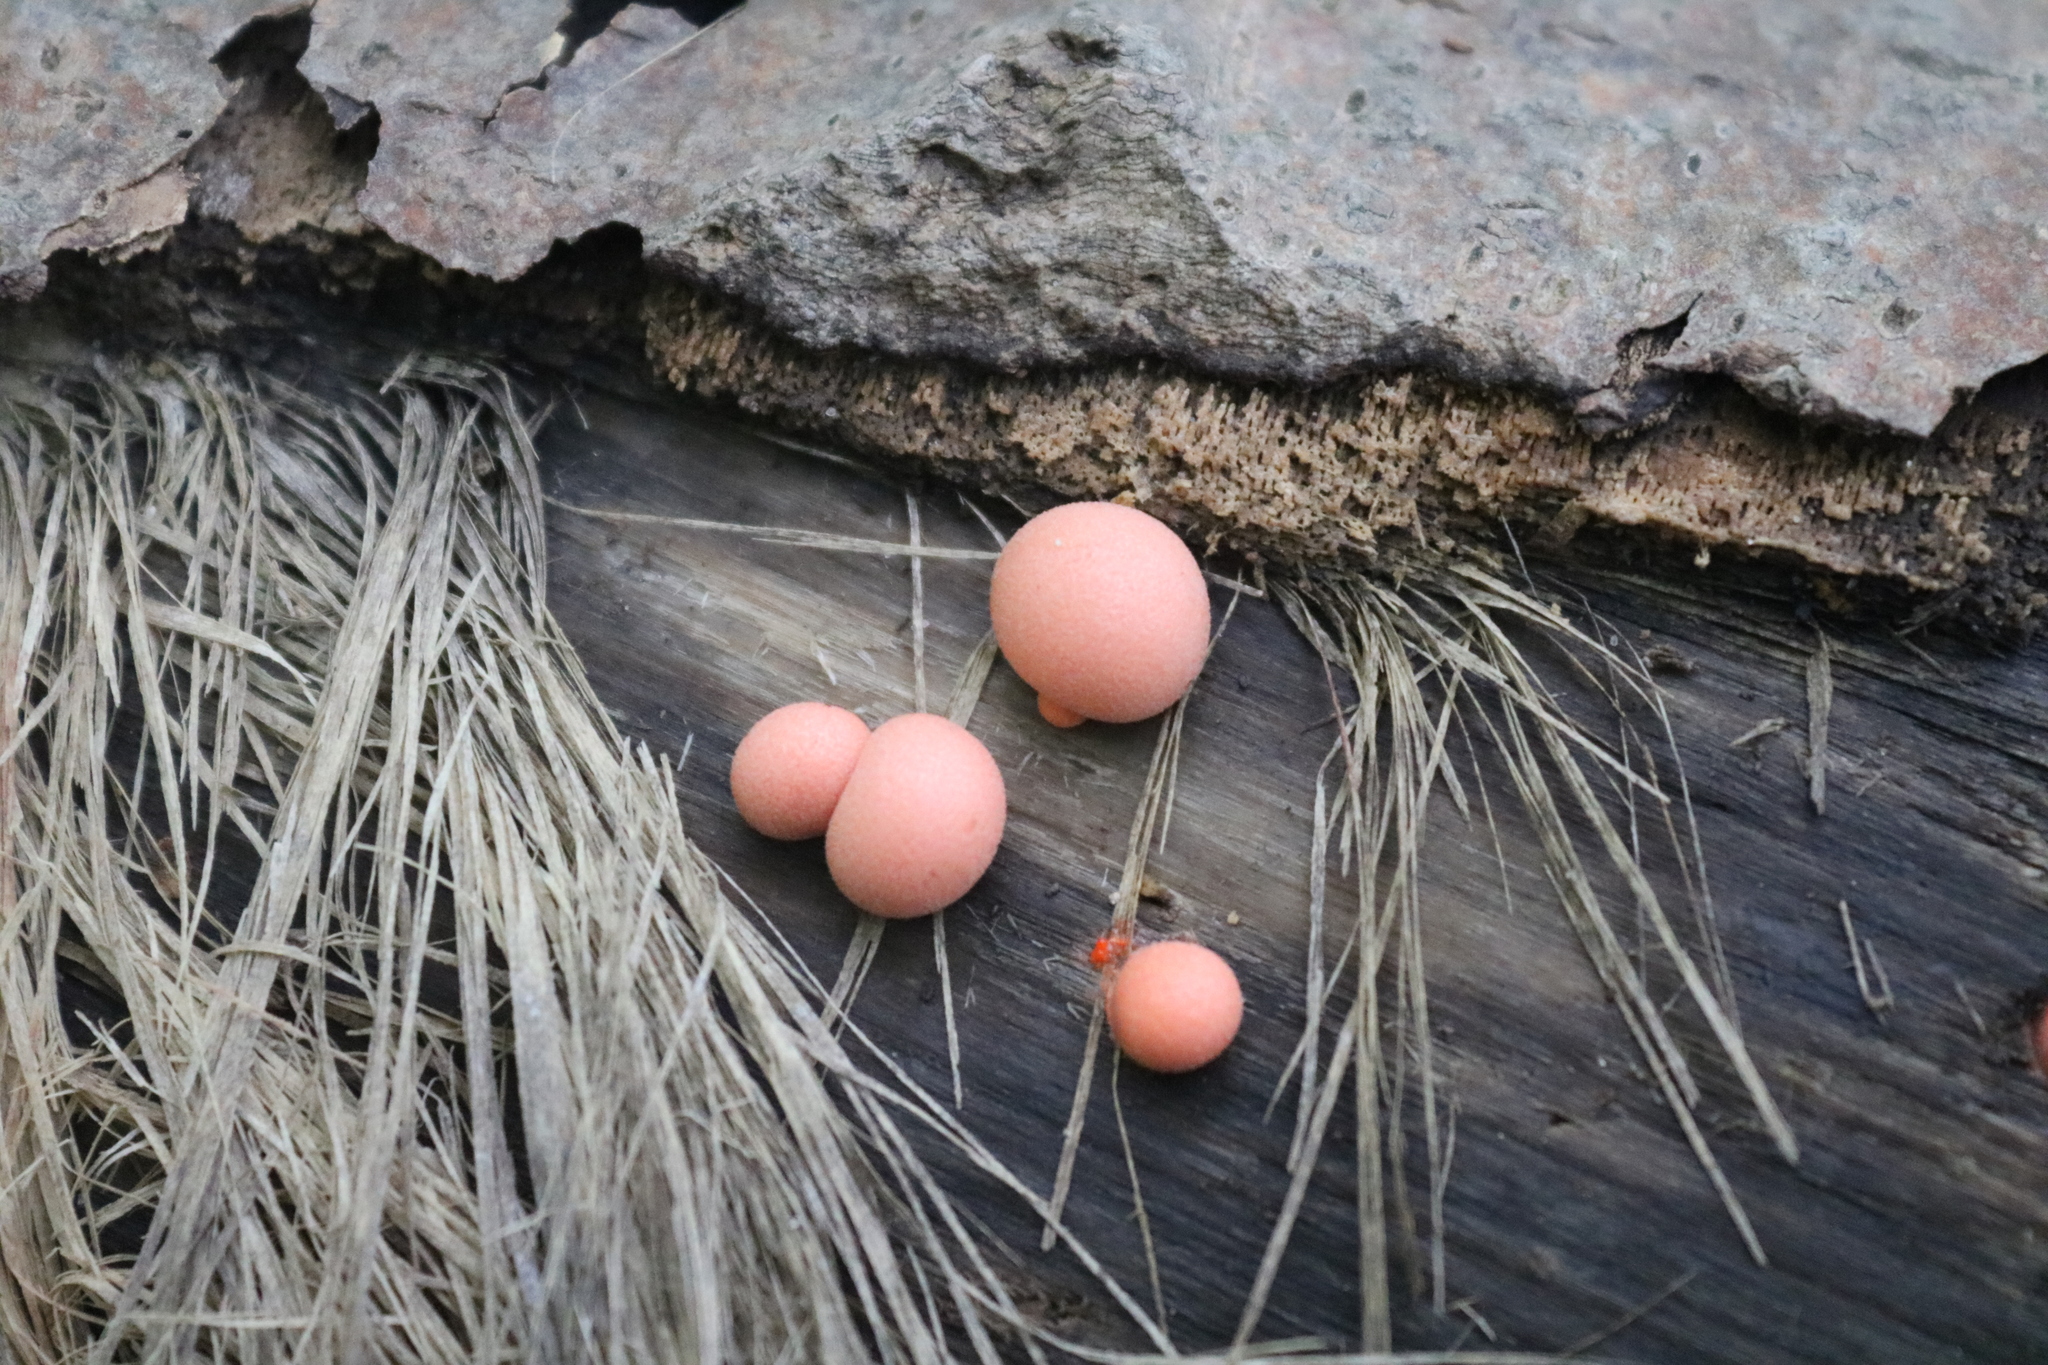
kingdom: Protozoa
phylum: Mycetozoa
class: Myxomycetes
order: Cribrariales
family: Tubiferaceae
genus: Lycogala
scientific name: Lycogala epidendrum
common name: Wolf's milk
